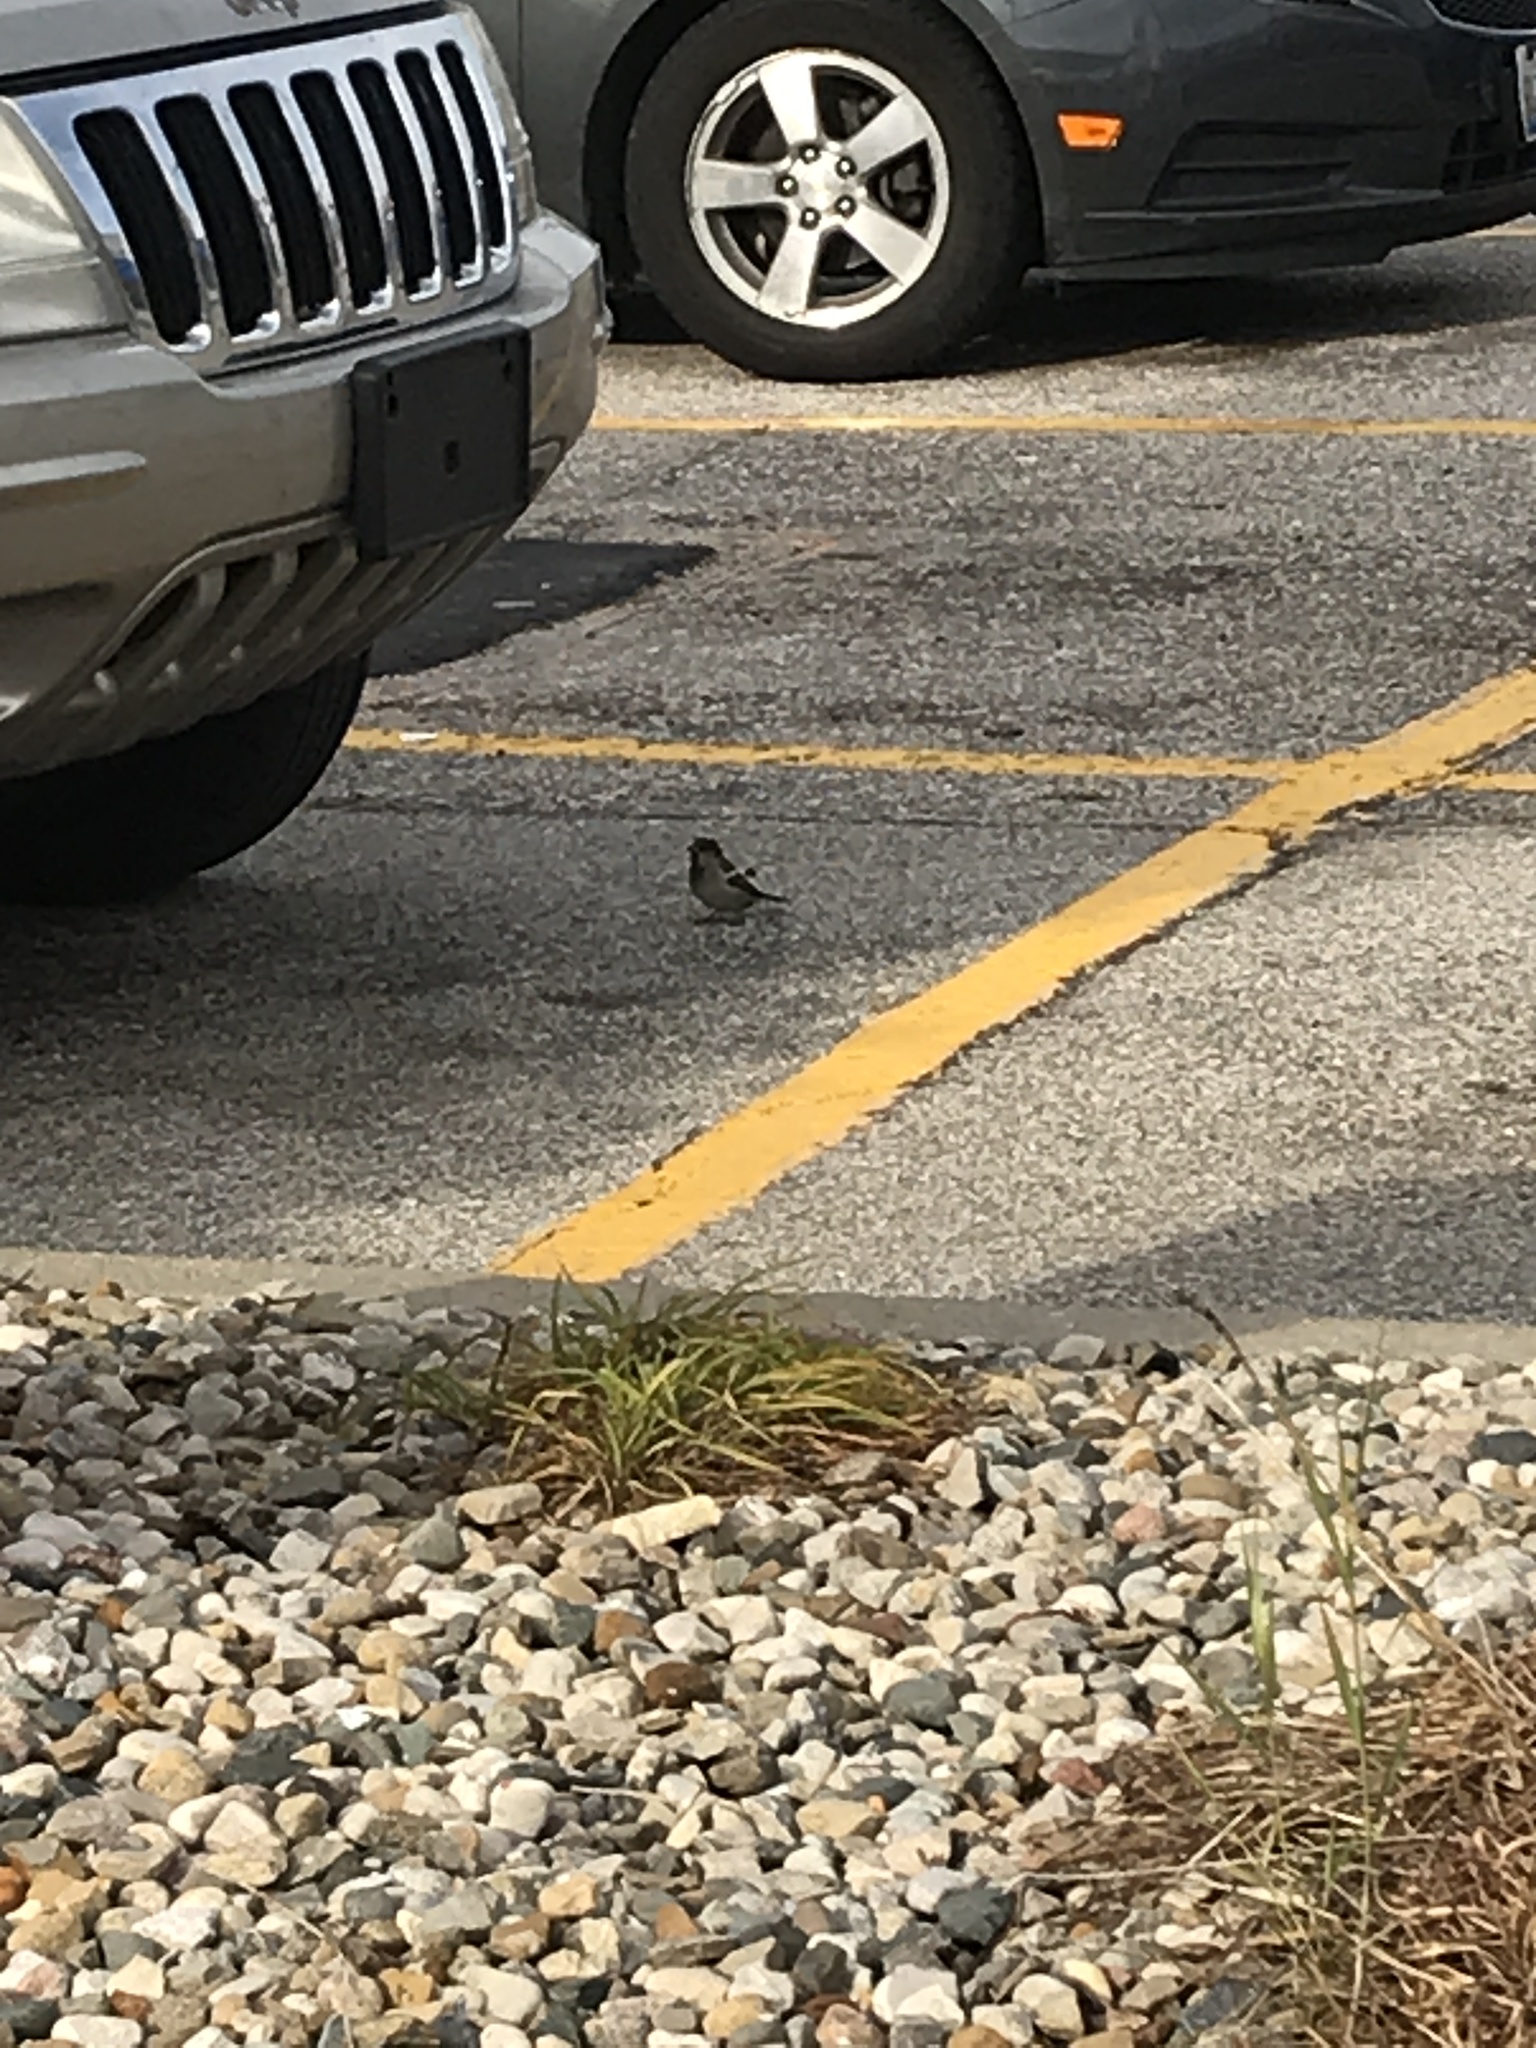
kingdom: Animalia
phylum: Chordata
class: Aves
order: Passeriformes
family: Passeridae
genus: Passer
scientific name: Passer domesticus
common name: House sparrow
